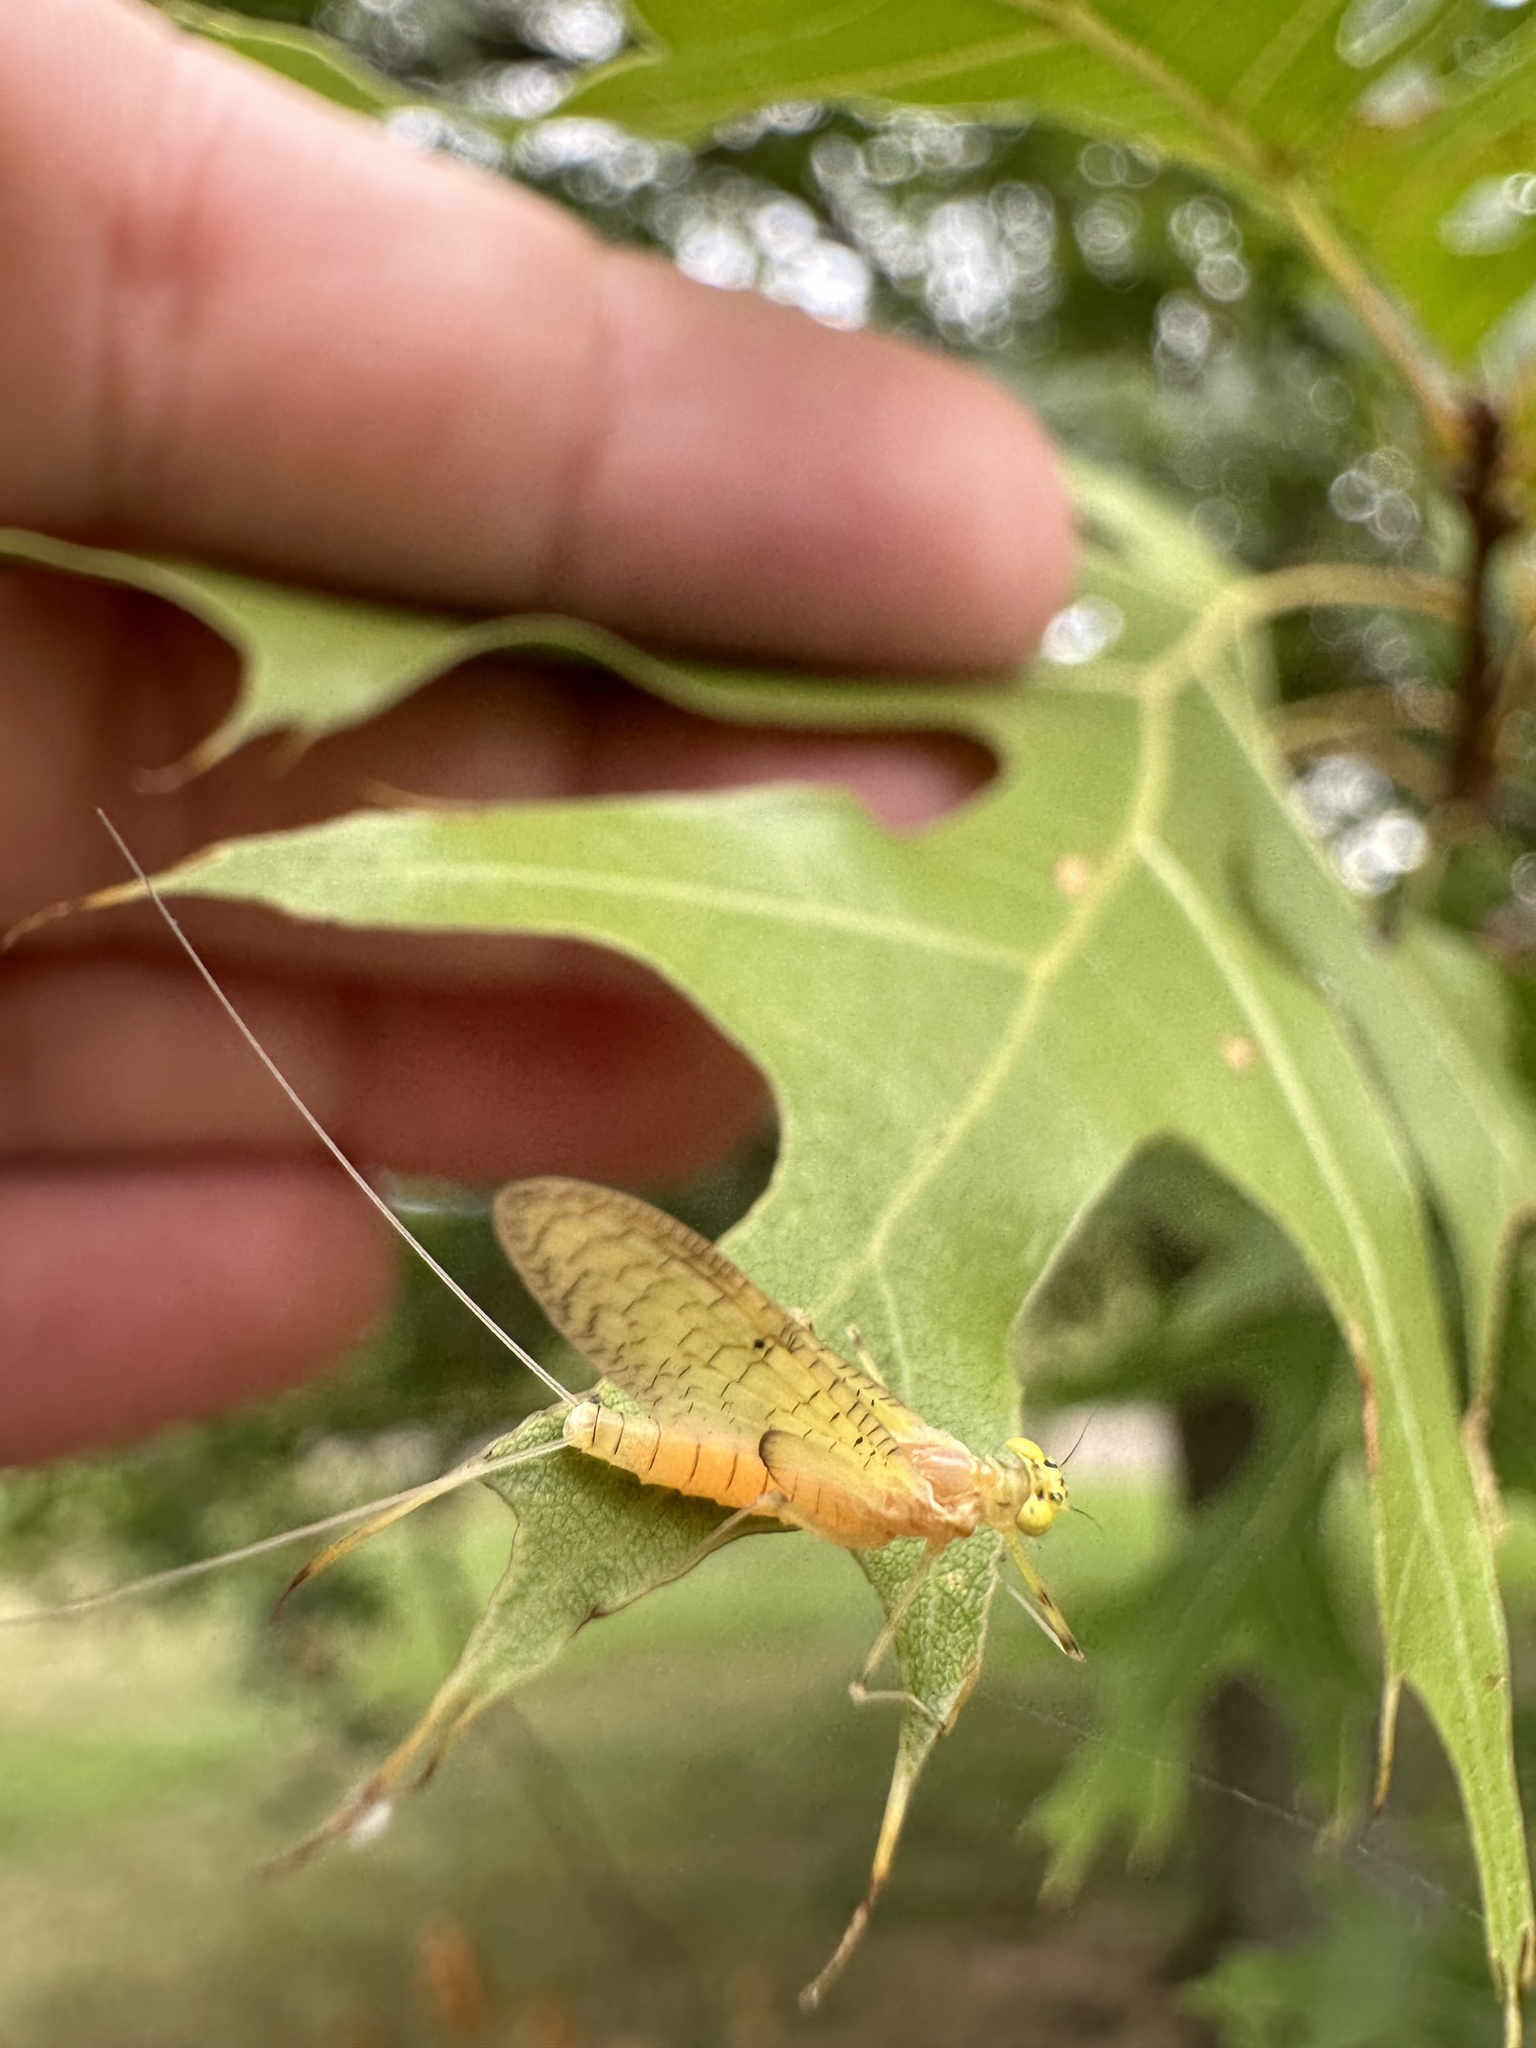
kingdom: Animalia
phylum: Arthropoda
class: Insecta
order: Ephemeroptera
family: Heptageniidae
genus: Stenacron
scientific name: Stenacron interpunctatum
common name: Orange cahill
